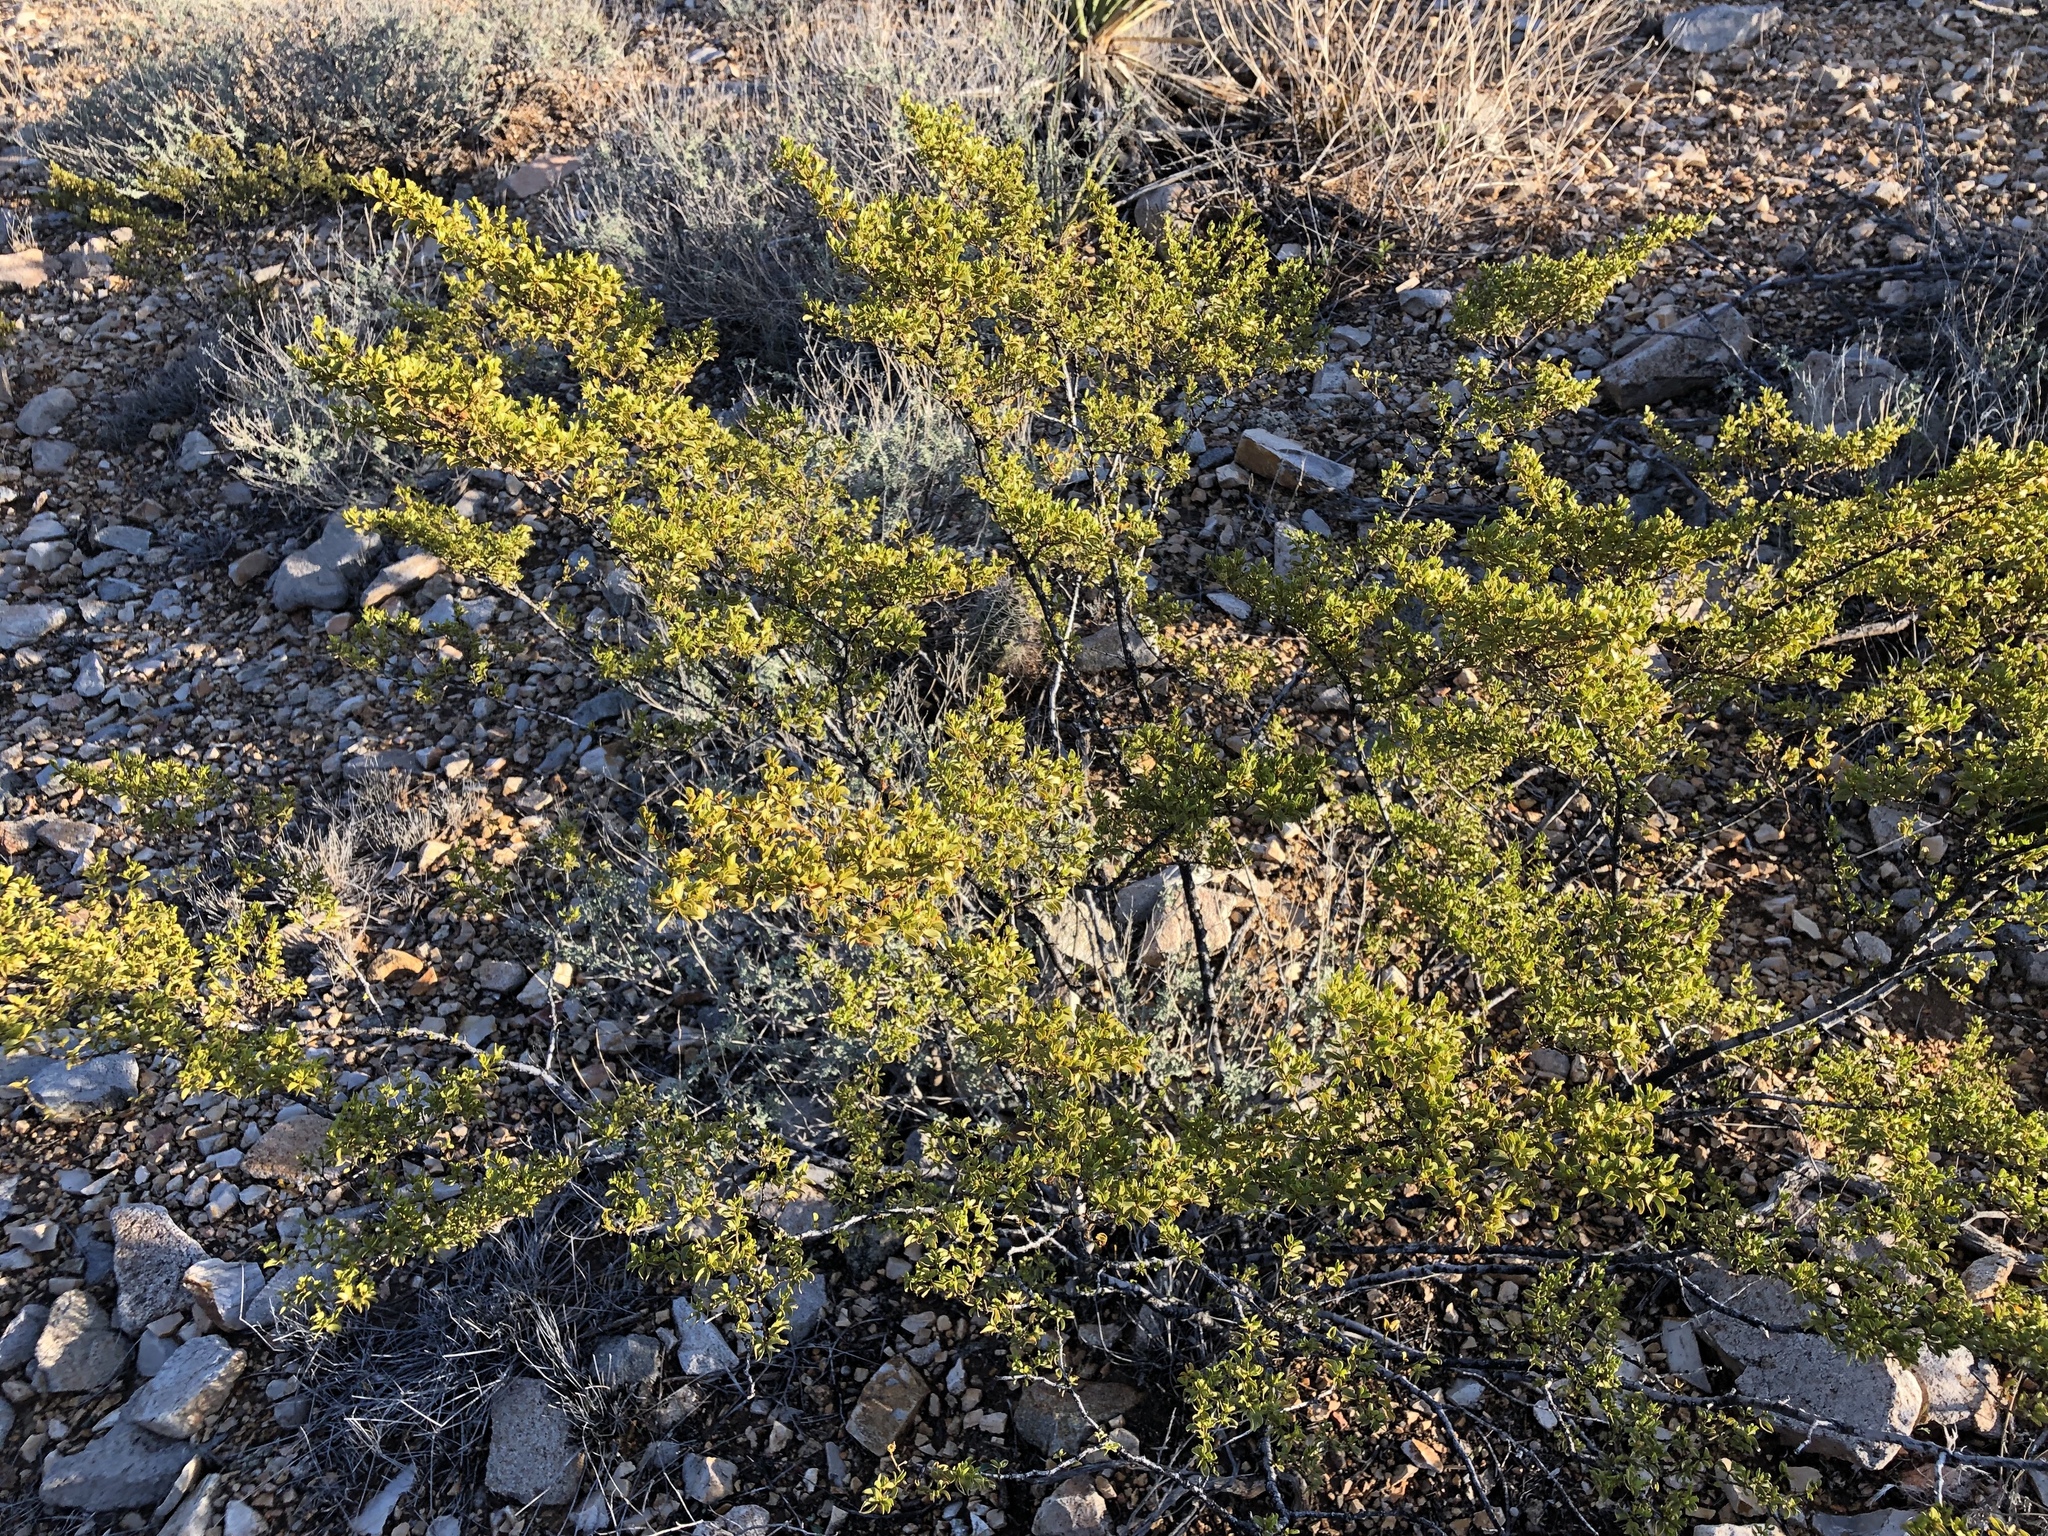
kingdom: Plantae
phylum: Tracheophyta
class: Magnoliopsida
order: Zygophyllales
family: Zygophyllaceae
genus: Larrea
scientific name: Larrea tridentata
